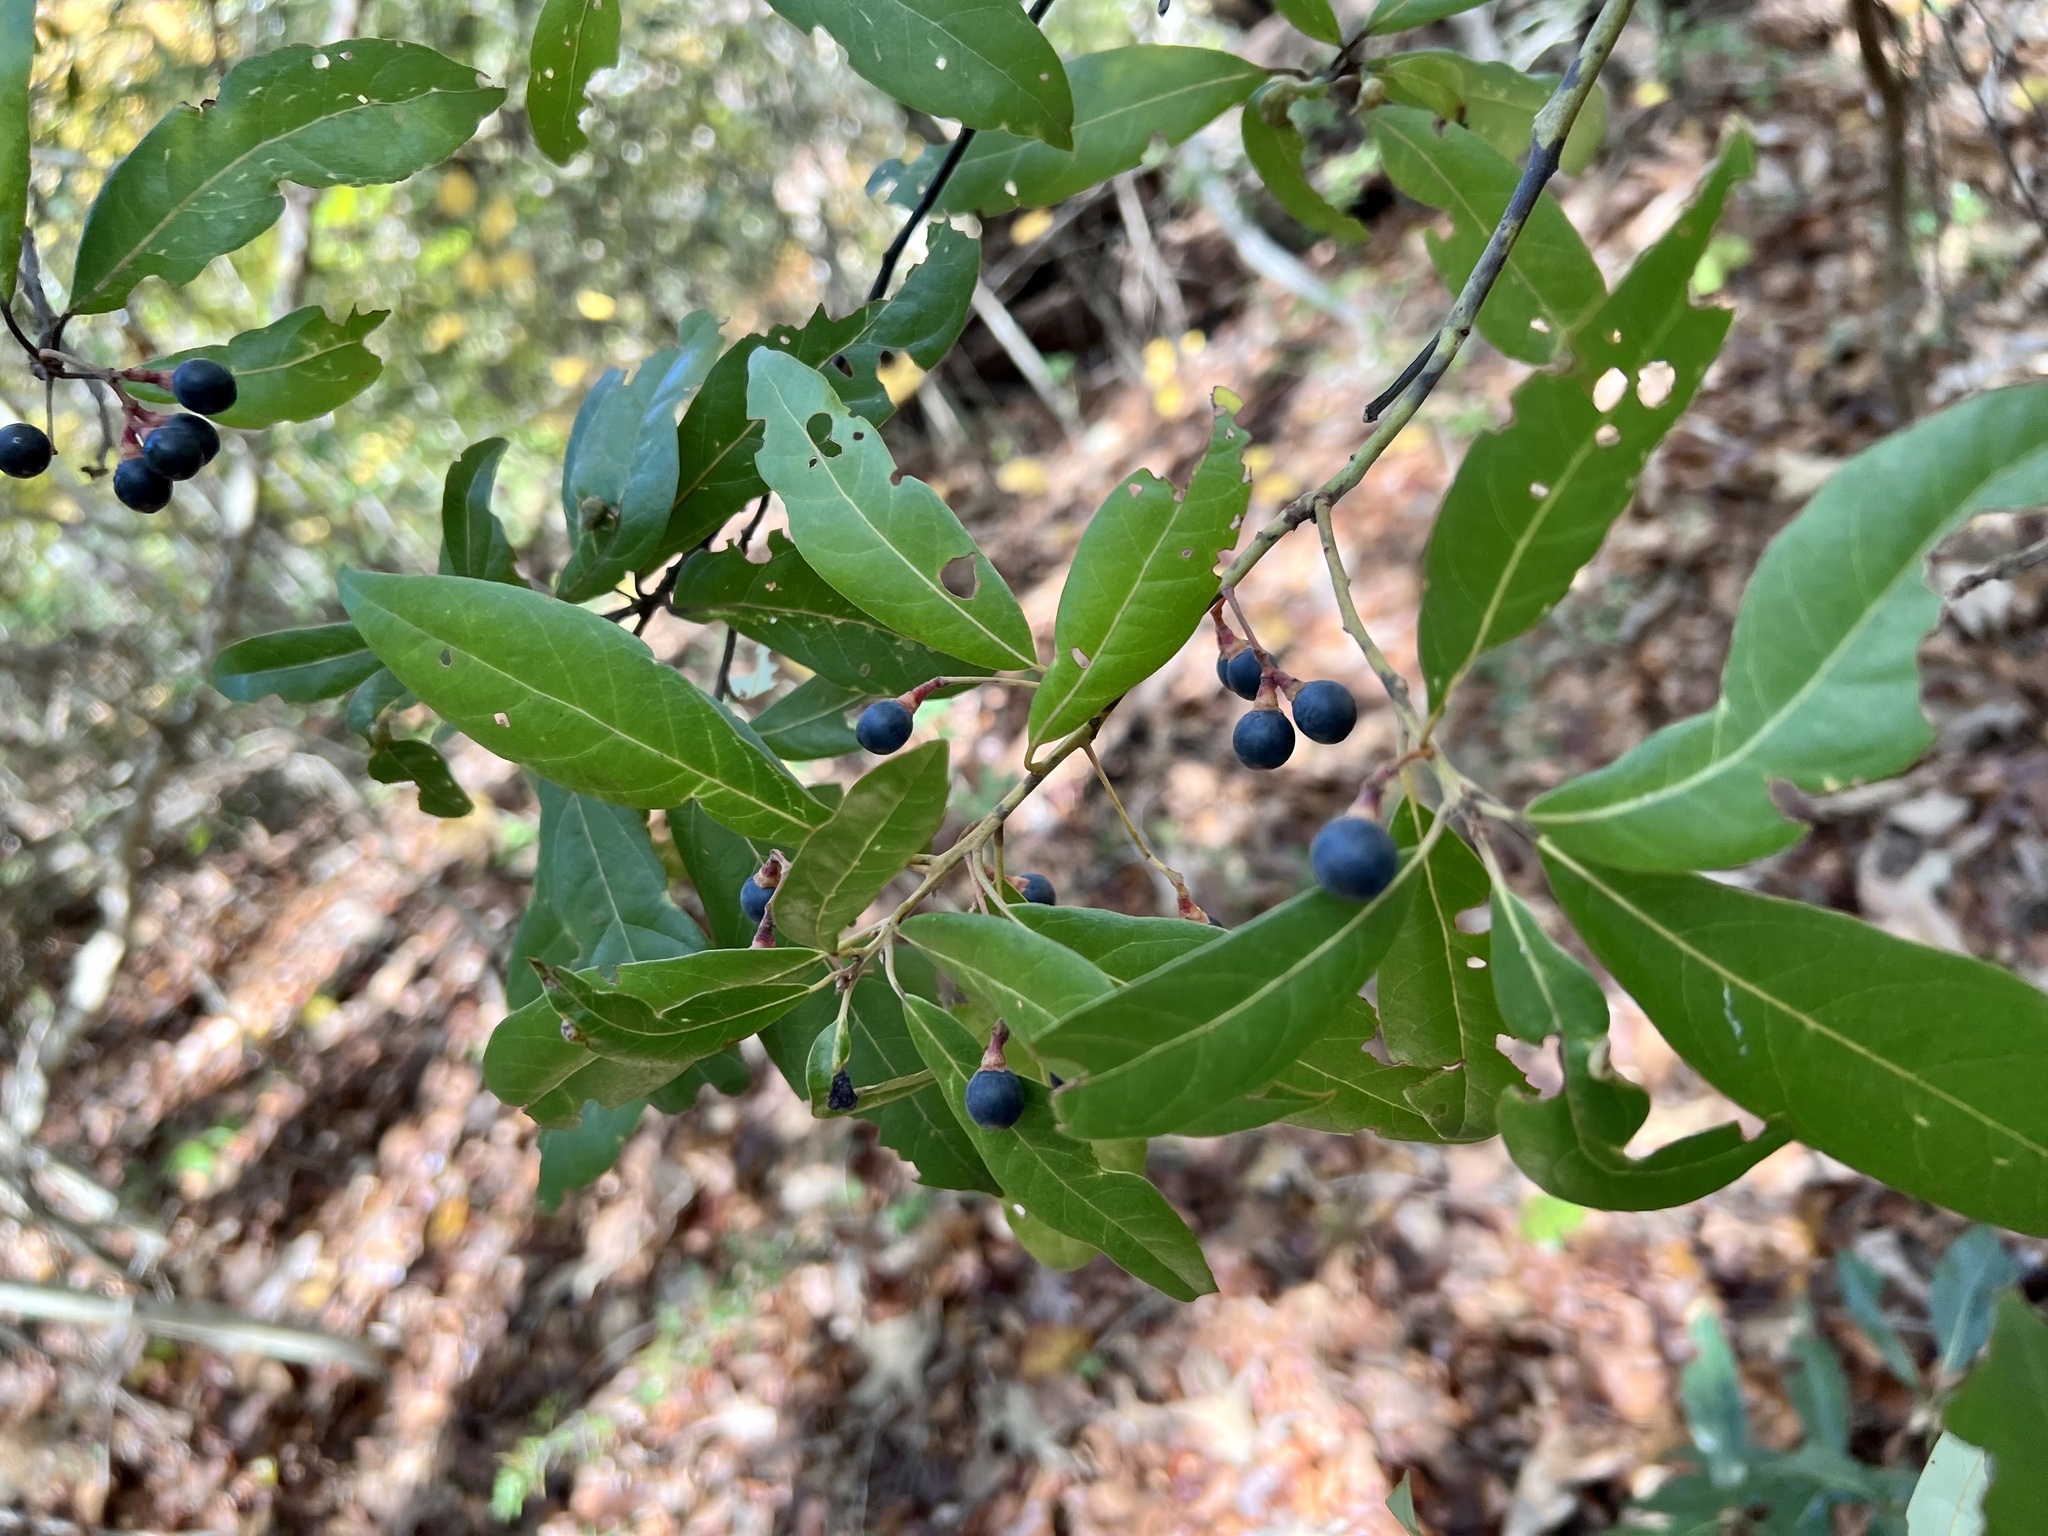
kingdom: Plantae
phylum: Tracheophyta
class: Magnoliopsida
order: Laurales
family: Lauraceae
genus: Persea
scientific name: Persea borbonia
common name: Redbay
